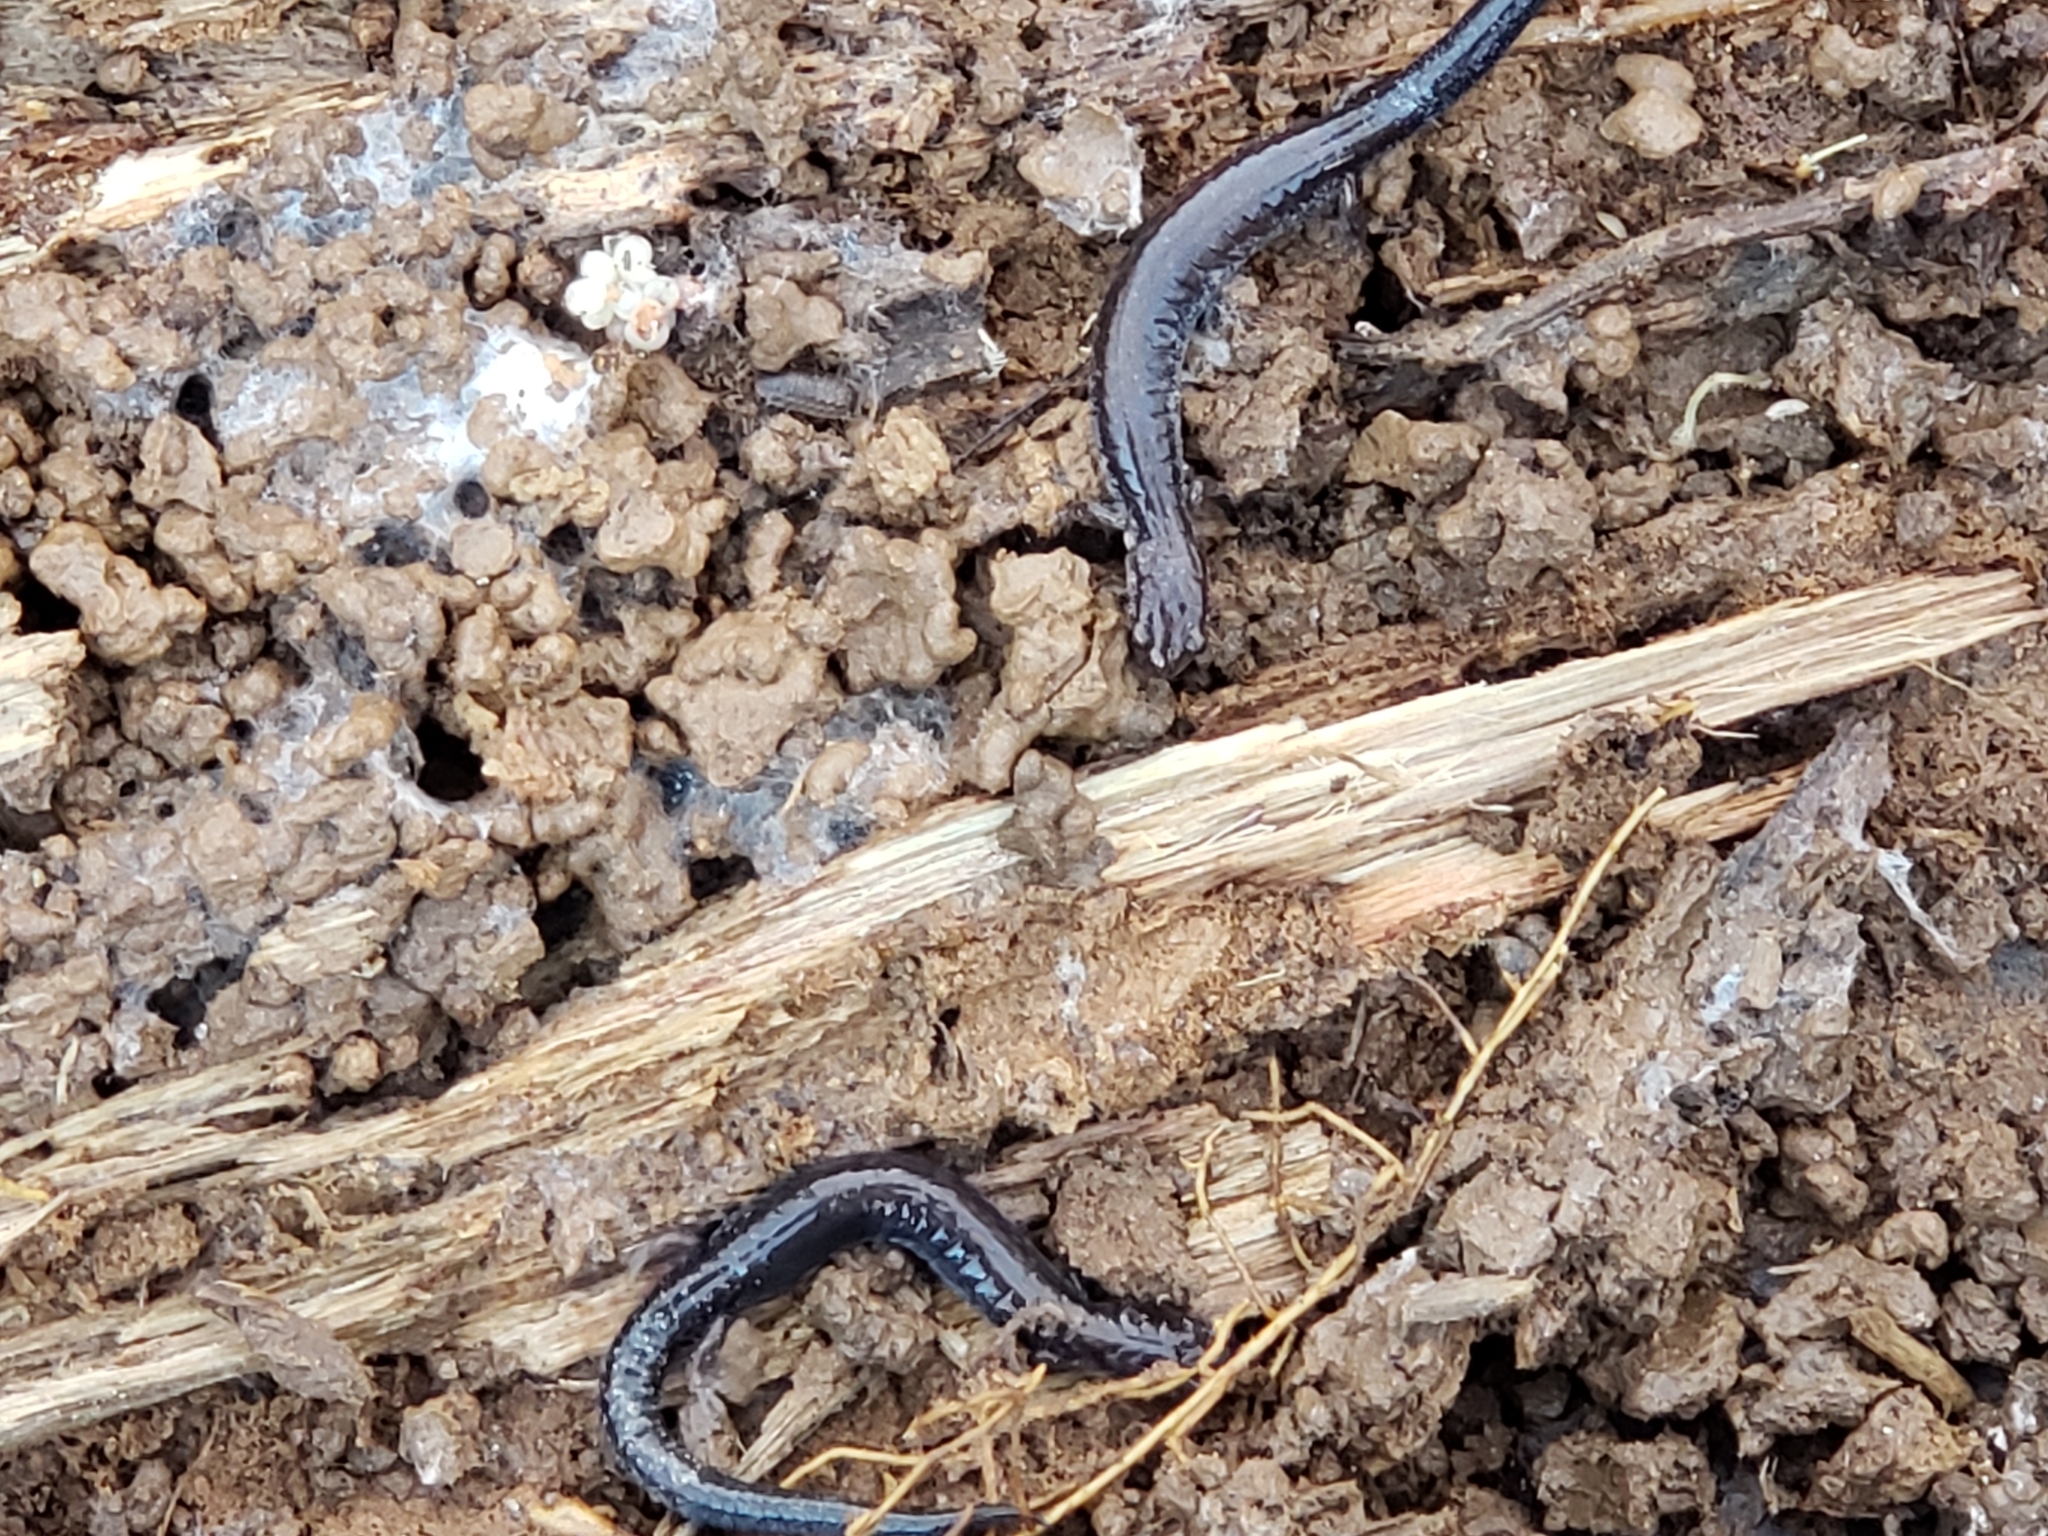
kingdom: Animalia
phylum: Chordata
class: Amphibia
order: Caudata
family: Plethodontidae
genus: Plethodon
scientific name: Plethodon cinereus
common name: Redback salamander
